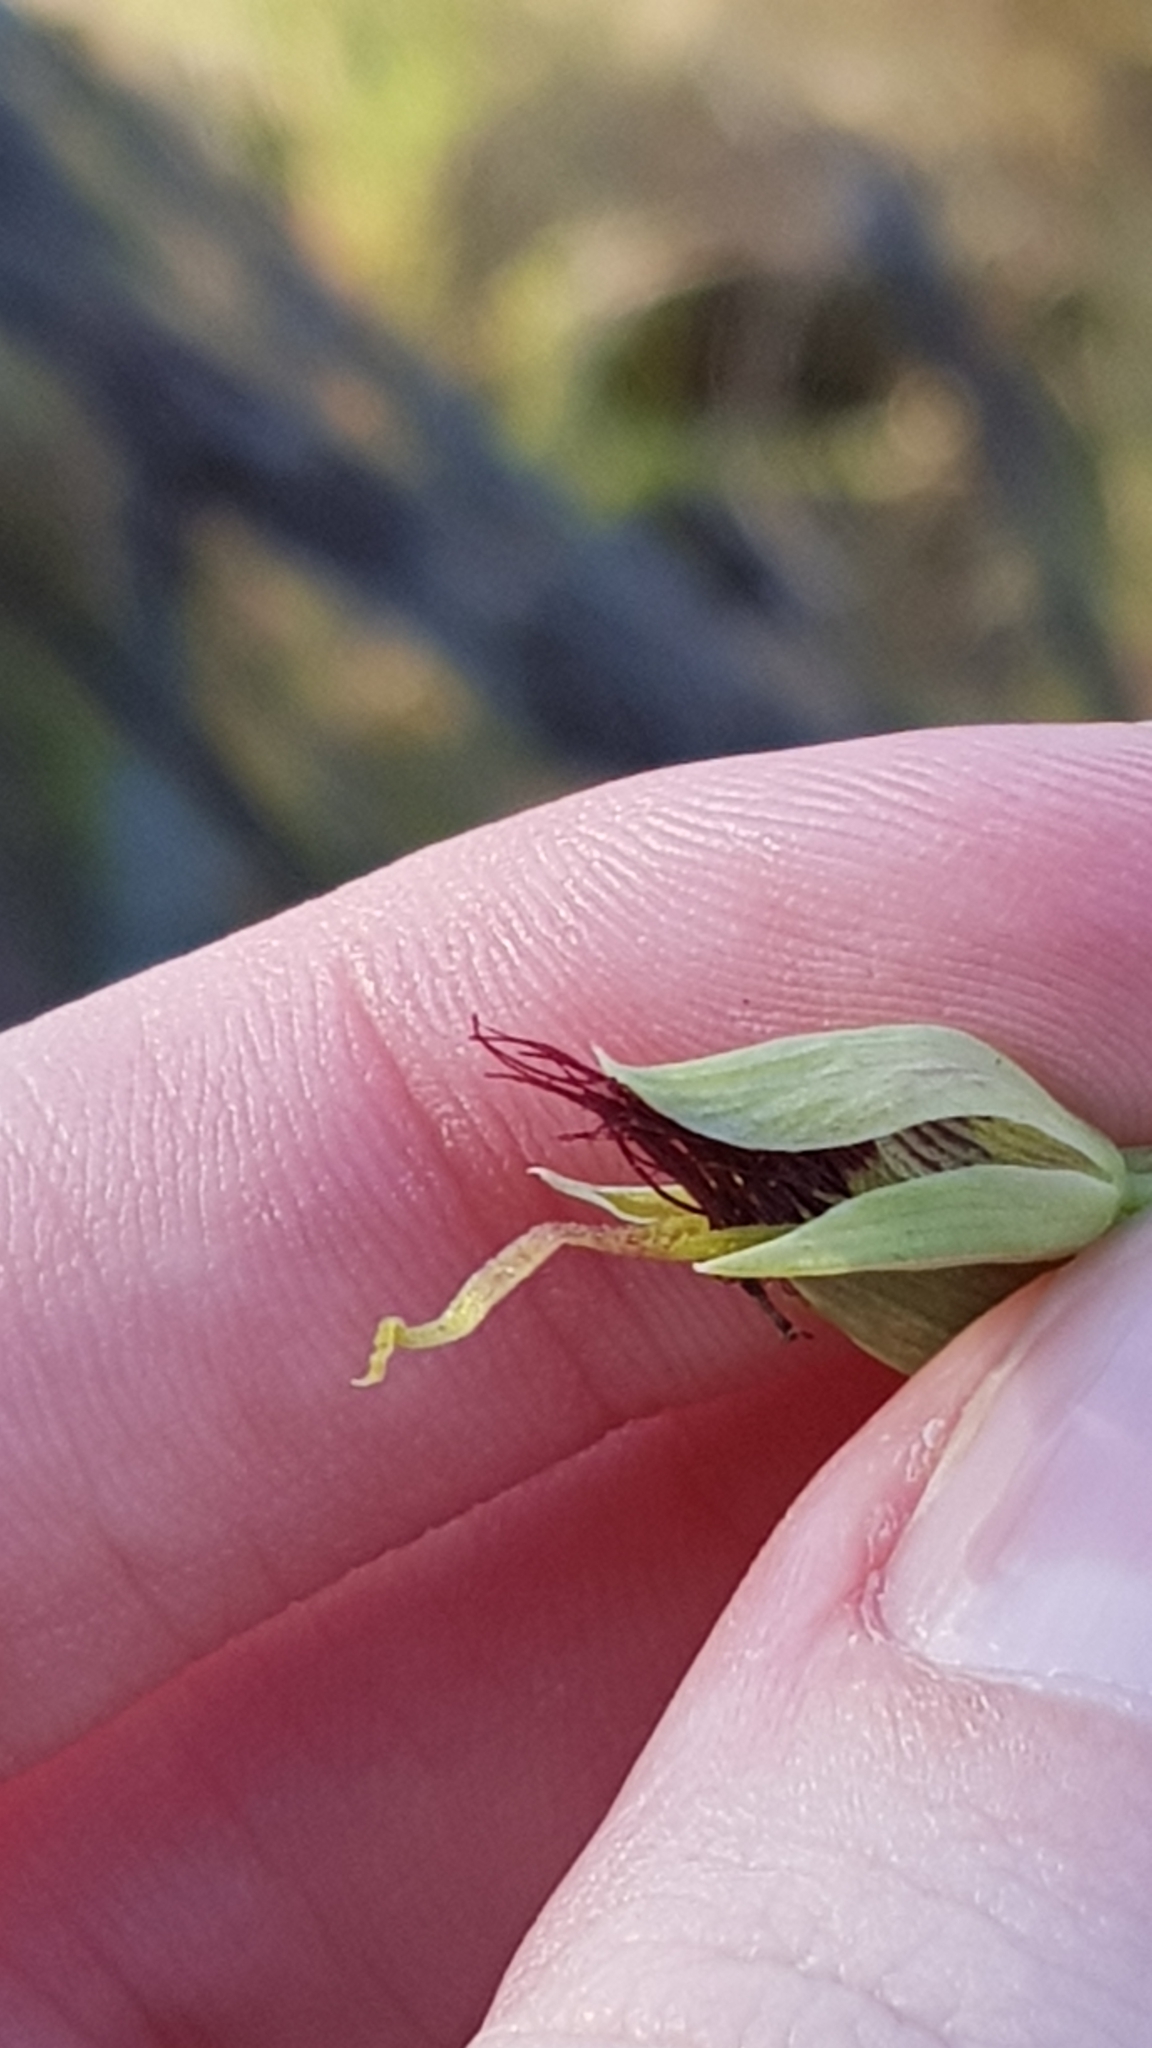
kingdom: Plantae
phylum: Tracheophyta
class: Liliopsida
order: Asparagales
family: Orchidaceae
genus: Calochilus
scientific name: Calochilus paludosus
